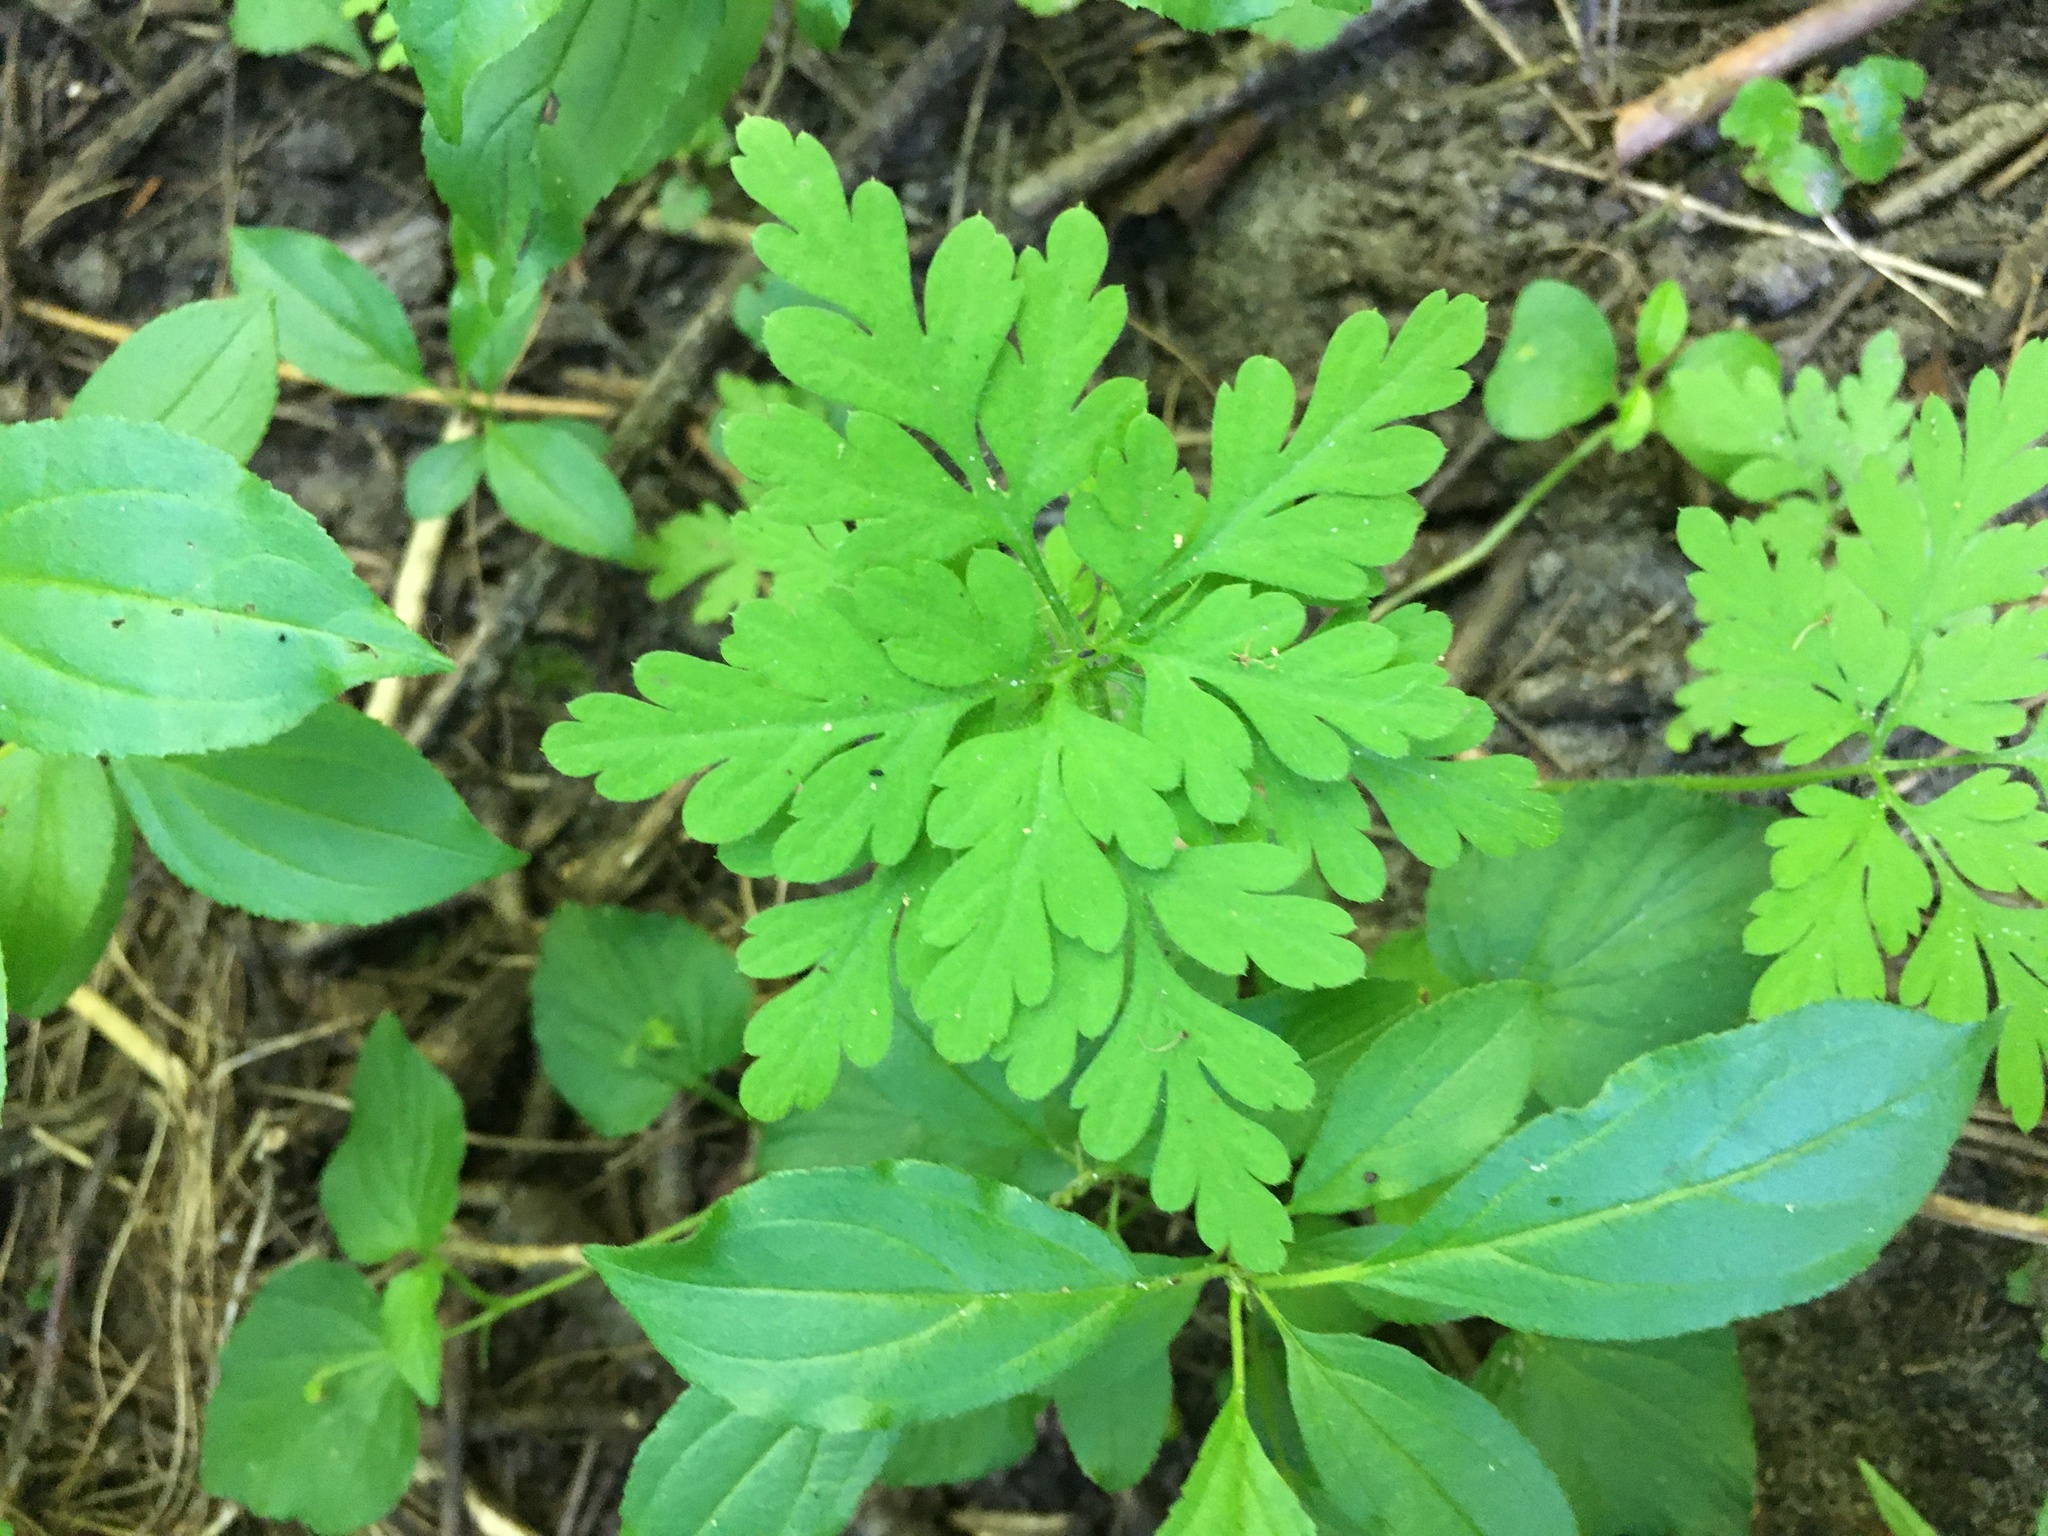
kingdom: Plantae
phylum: Tracheophyta
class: Magnoliopsida
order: Geraniales
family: Geraniaceae
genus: Geranium
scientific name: Geranium robertianum
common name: Herb-robert
